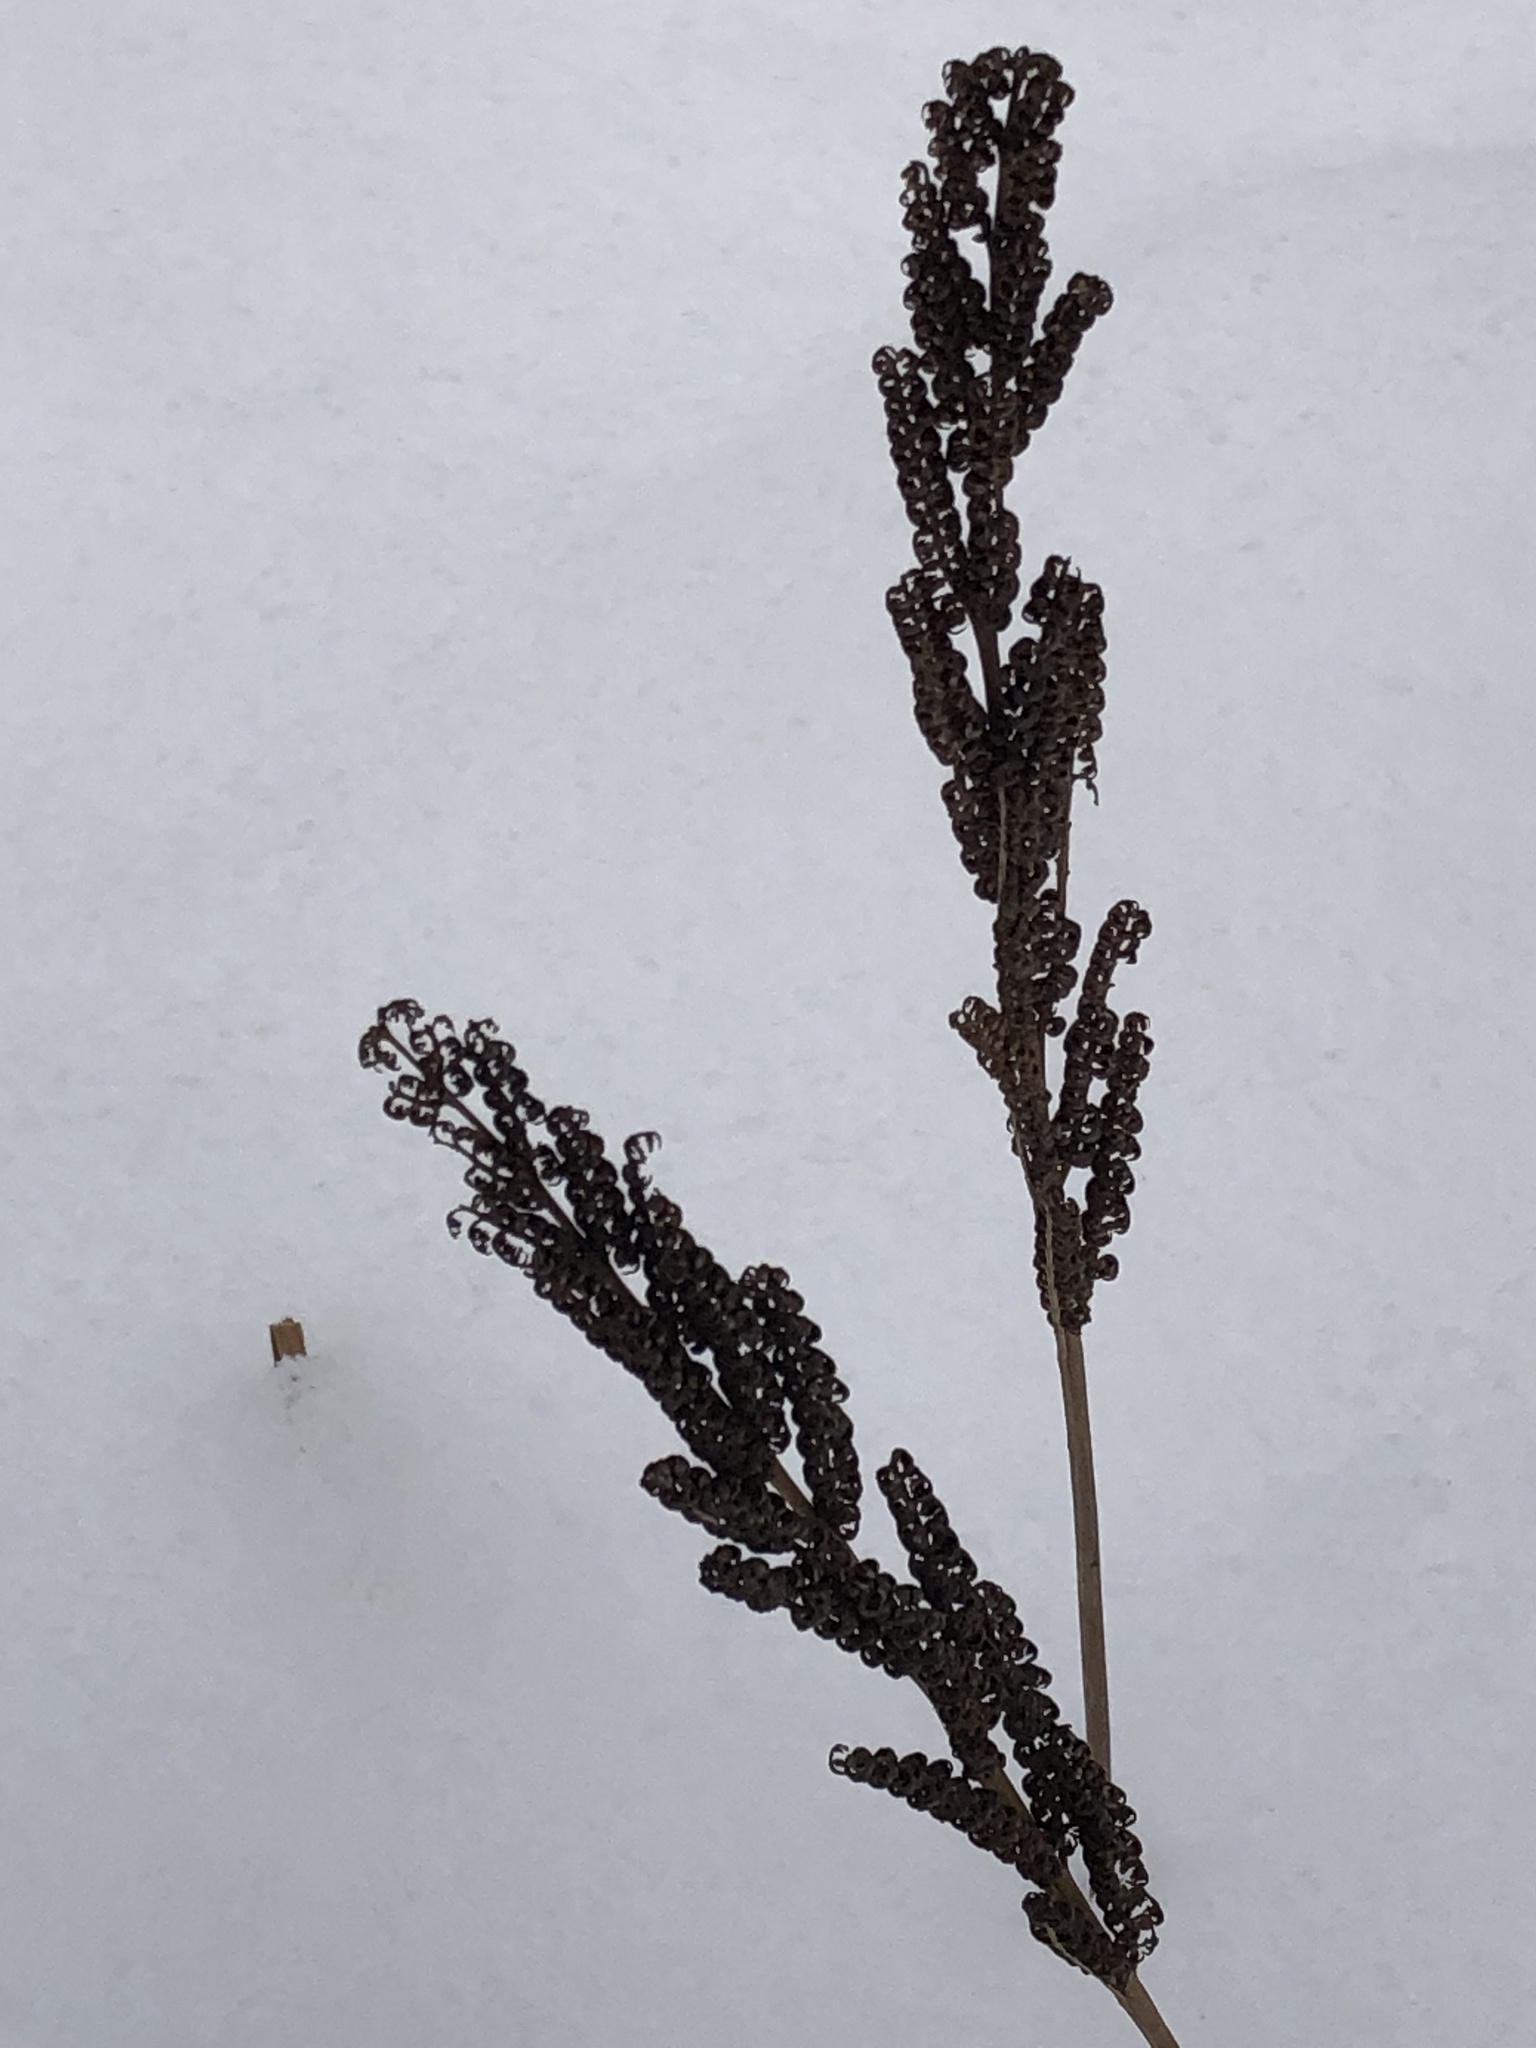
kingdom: Plantae
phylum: Tracheophyta
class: Polypodiopsida
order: Polypodiales
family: Onocleaceae
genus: Onoclea
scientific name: Onoclea sensibilis
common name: Sensitive fern
